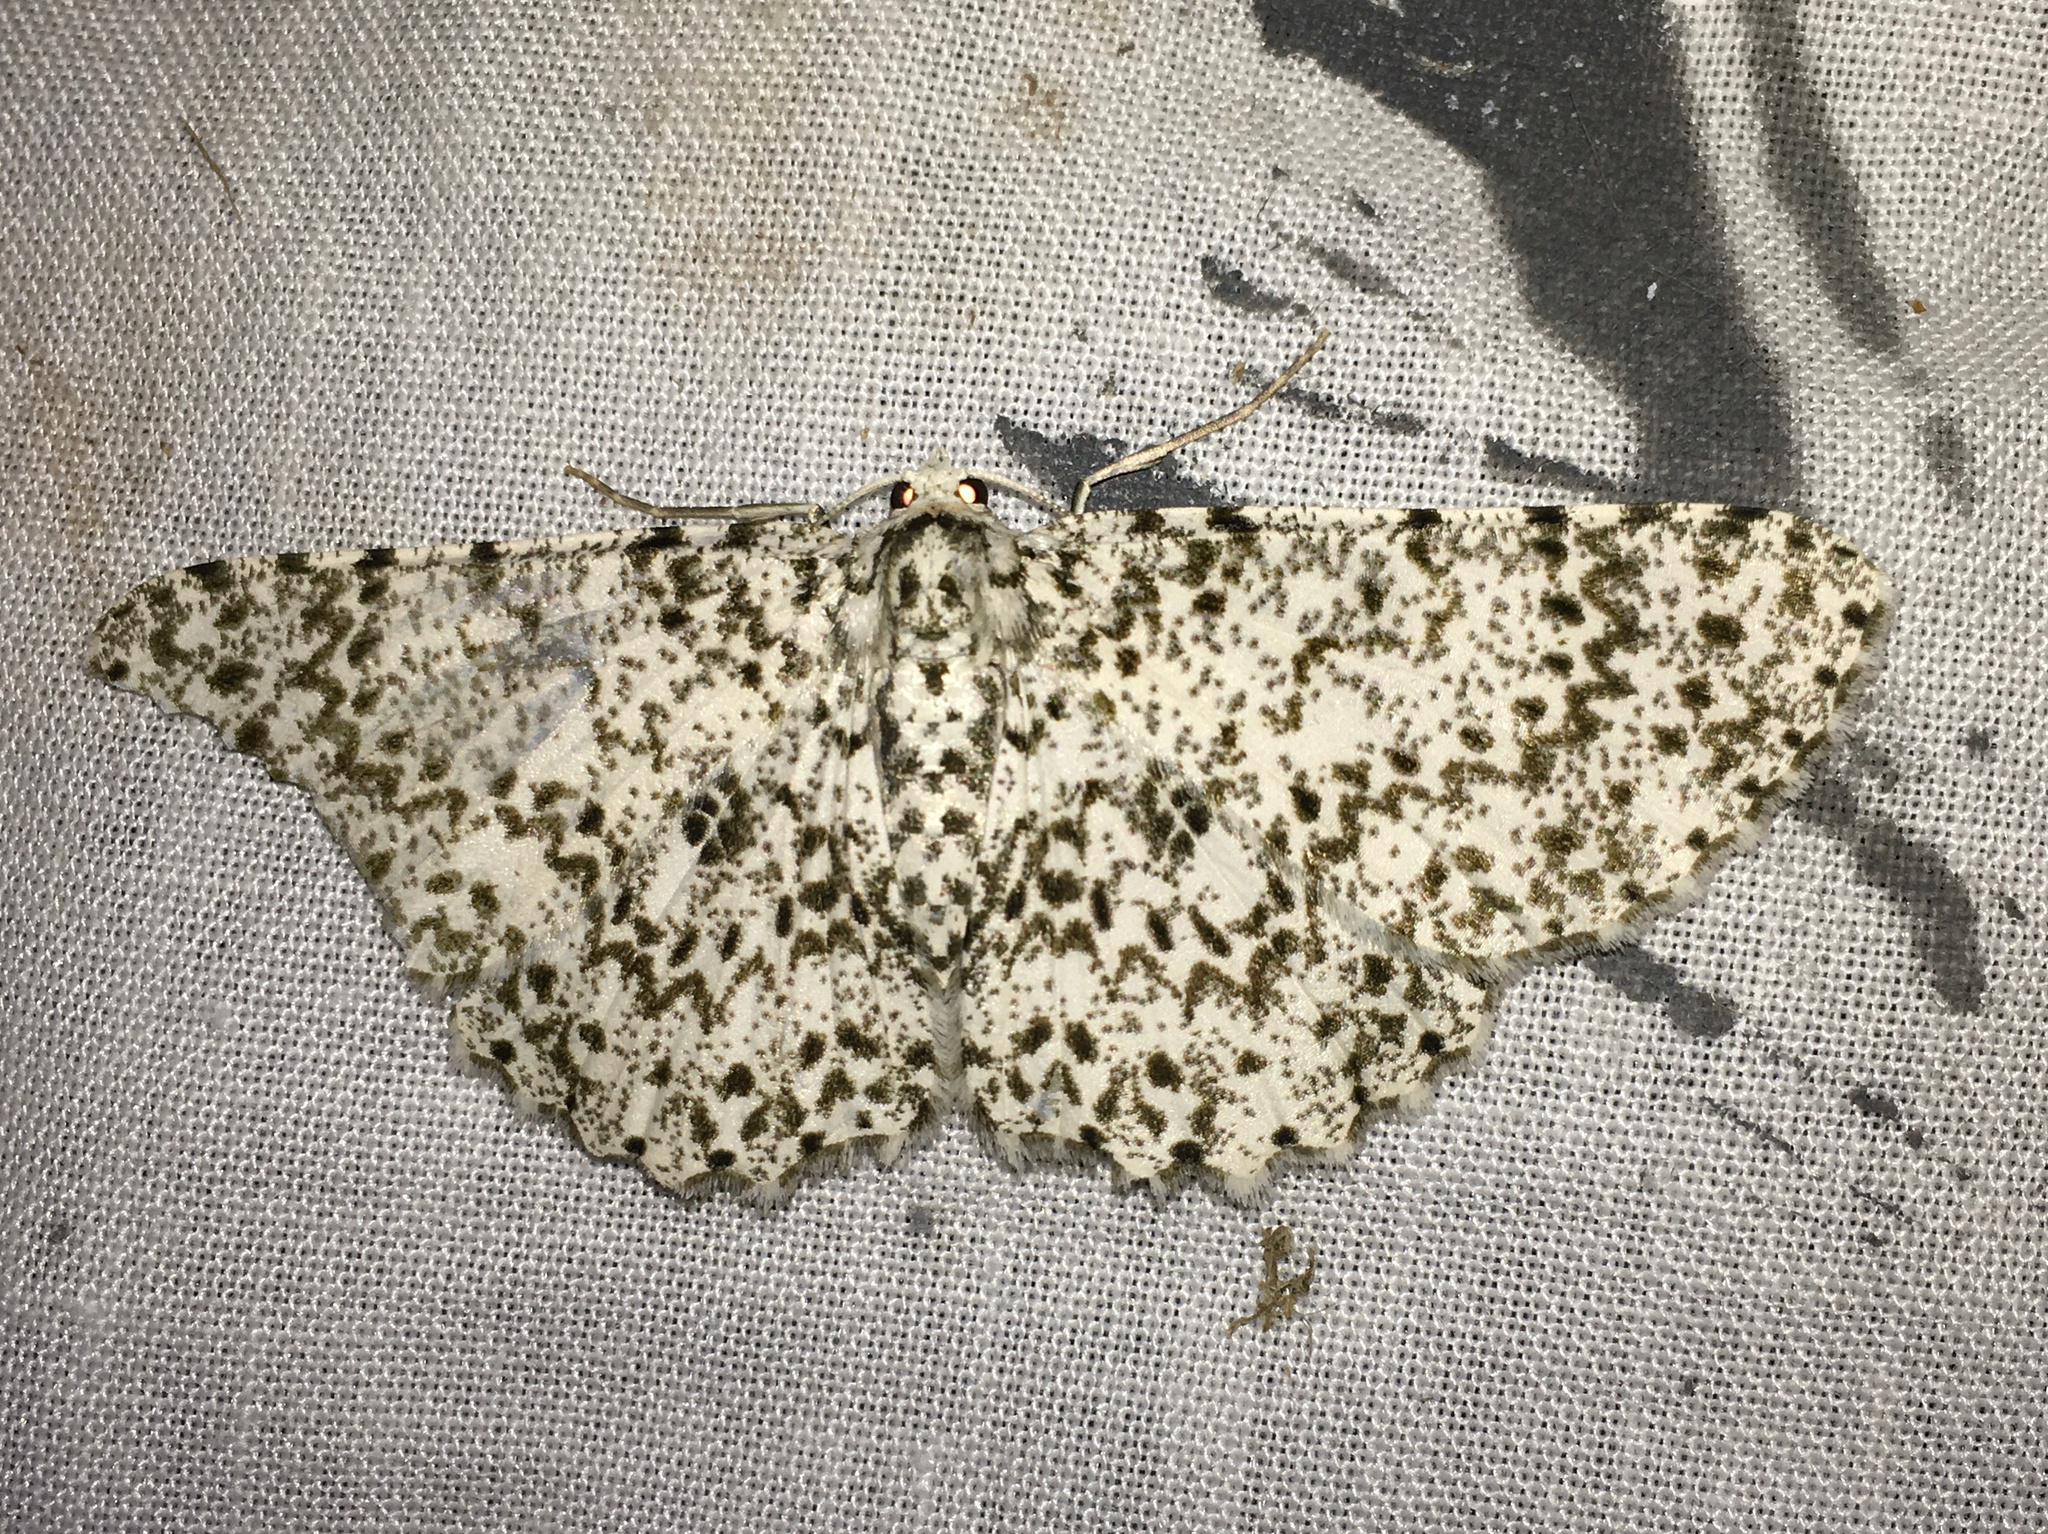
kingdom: Animalia
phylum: Arthropoda
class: Insecta
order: Lepidoptera
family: Geometridae
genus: Catoria
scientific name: Catoria camelaria
